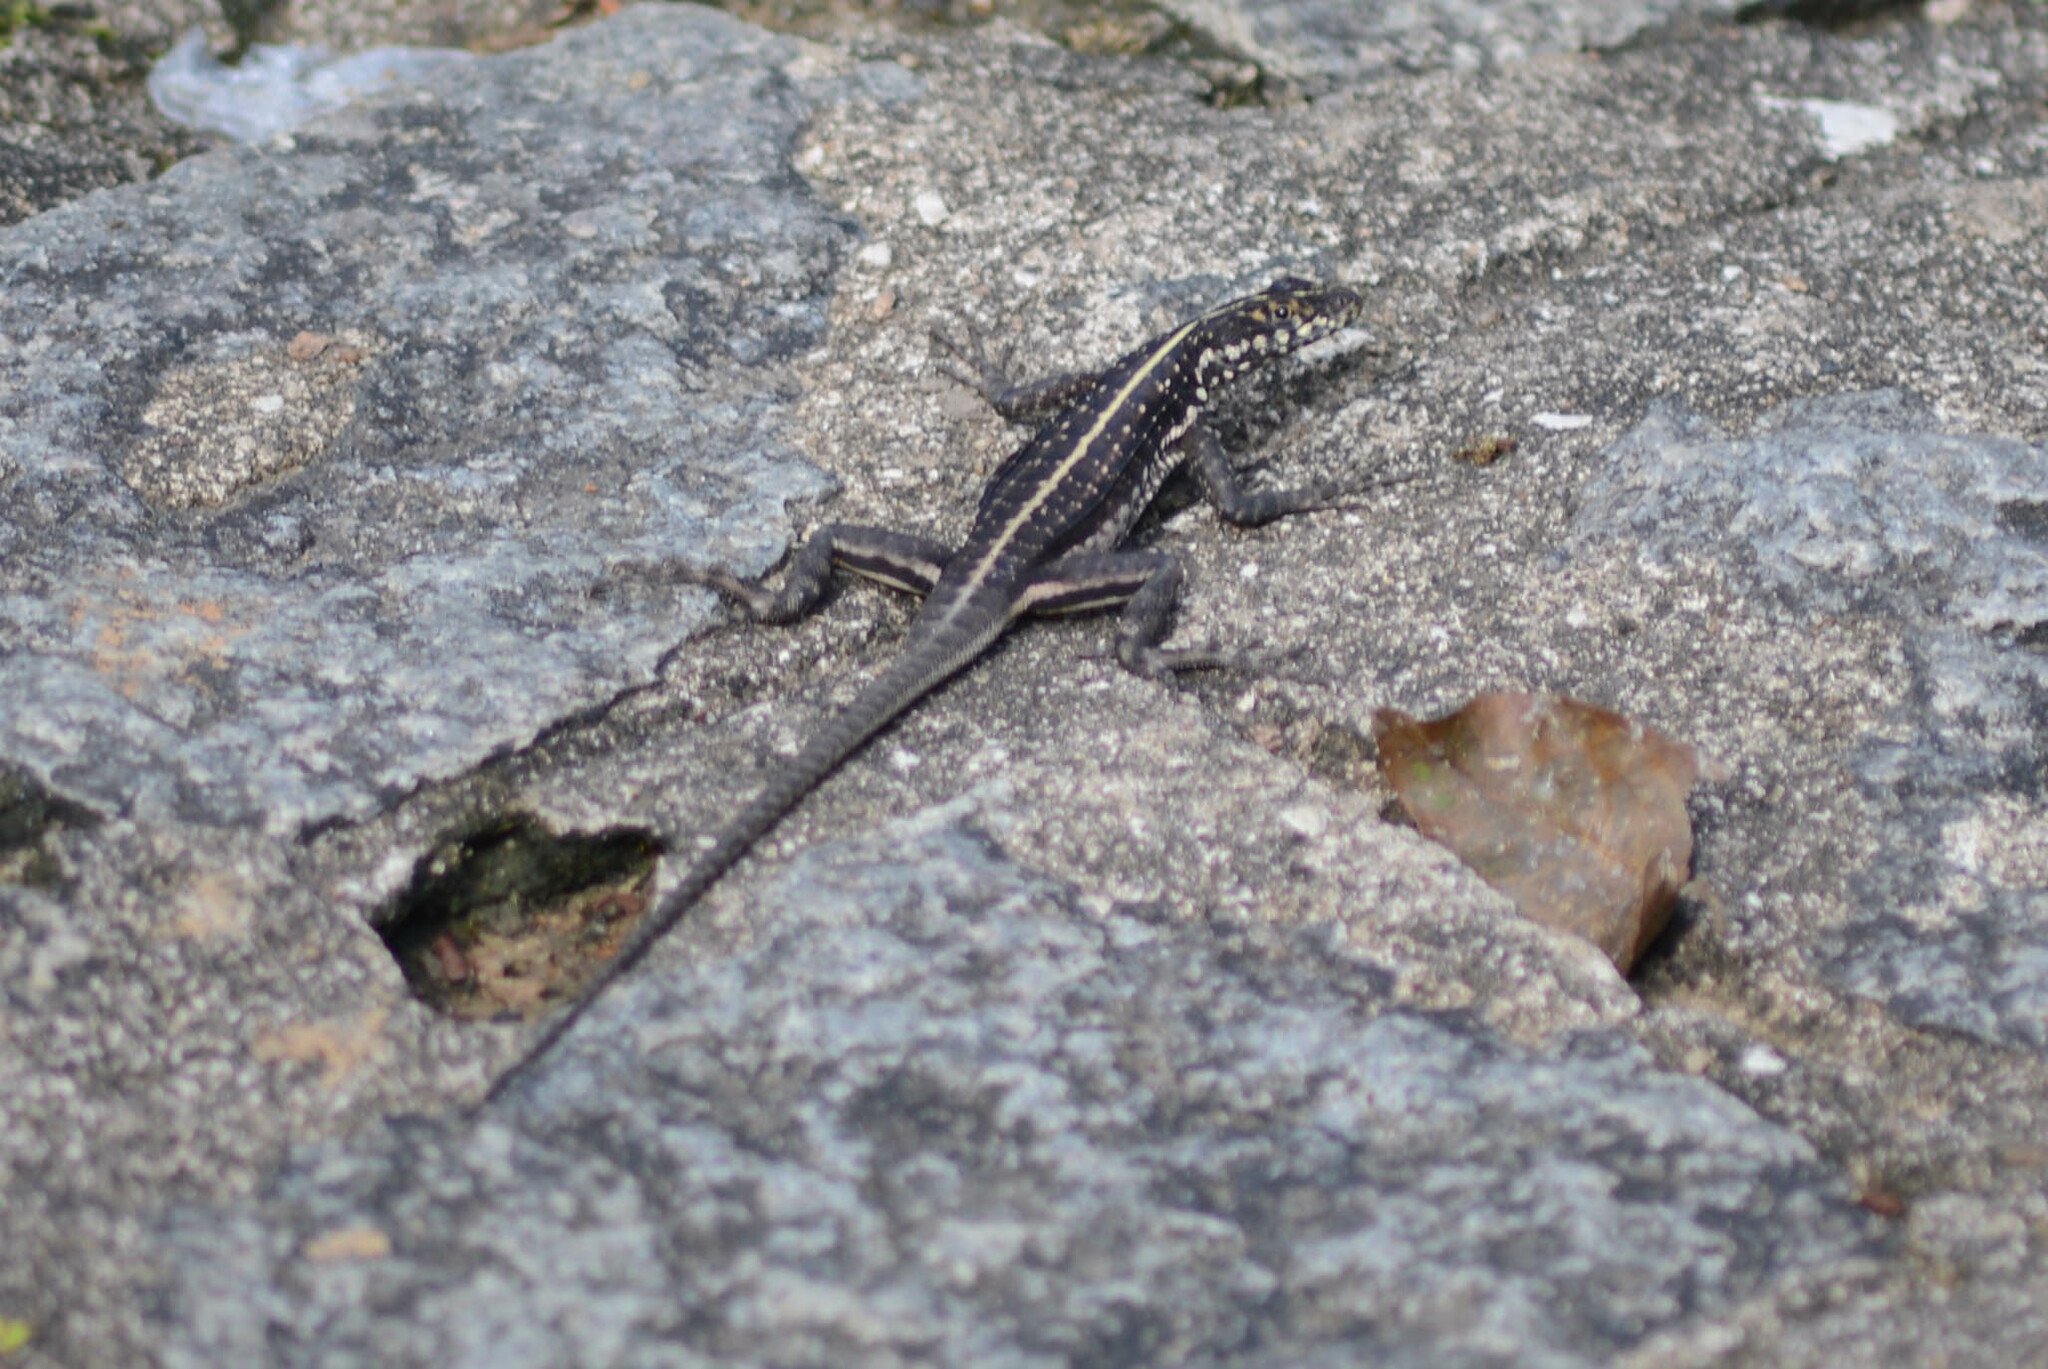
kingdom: Animalia
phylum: Chordata
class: Squamata
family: Tropiduridae
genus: Tropidurus
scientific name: Tropidurus semitaeniatus
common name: Striped lava lizard
